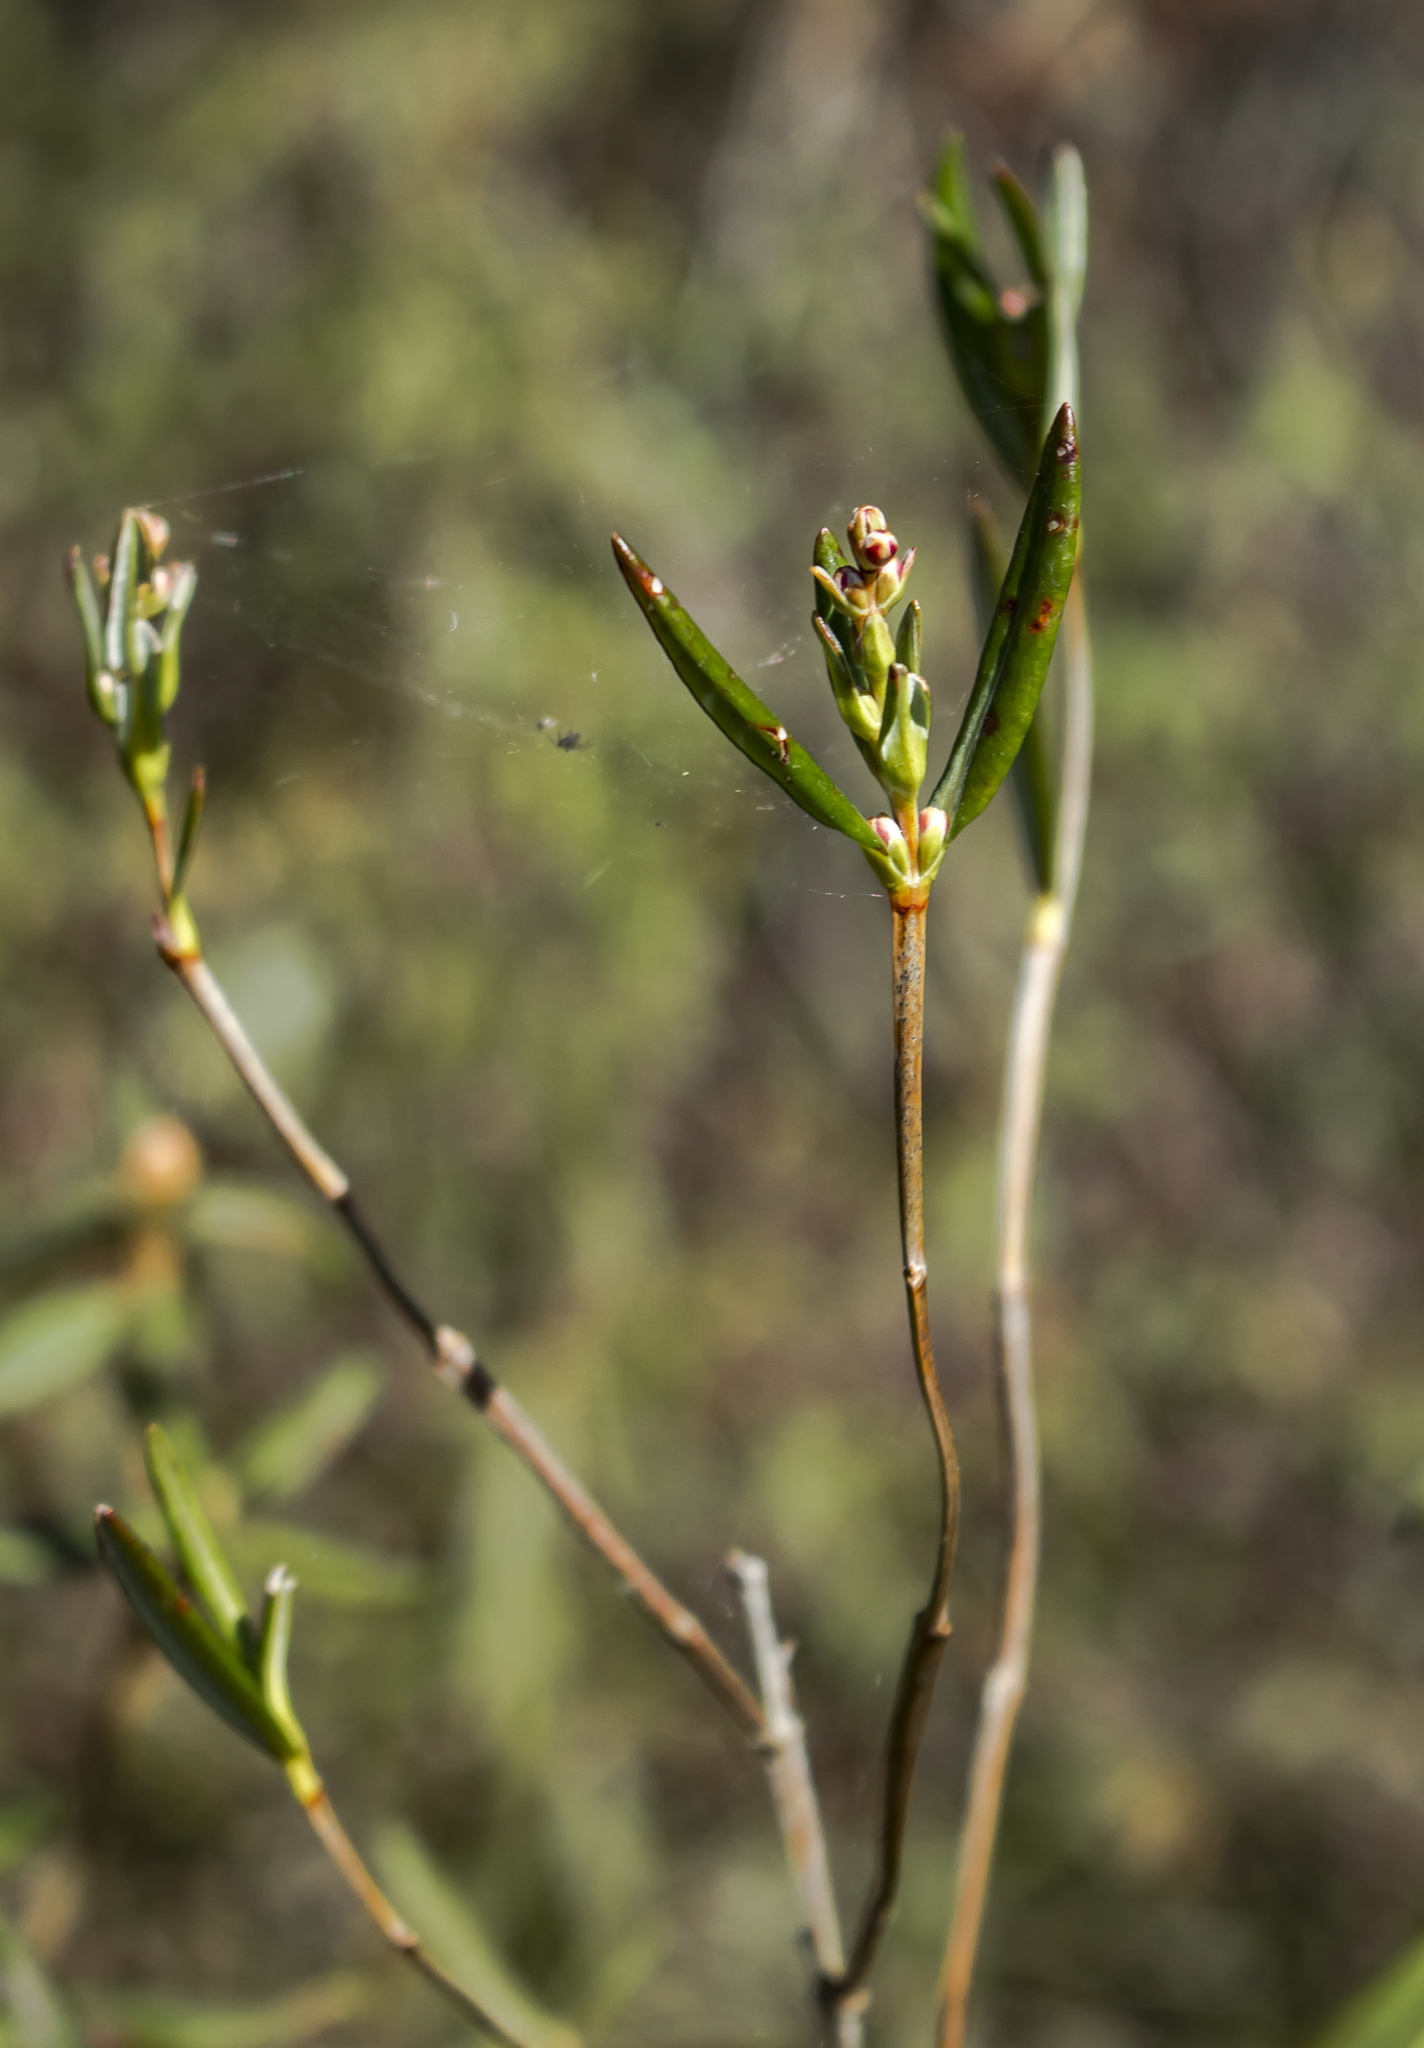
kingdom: Plantae
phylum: Tracheophyta
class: Magnoliopsida
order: Ericales
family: Ericaceae
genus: Kalmia
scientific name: Kalmia polifolia
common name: Bog-laurel
